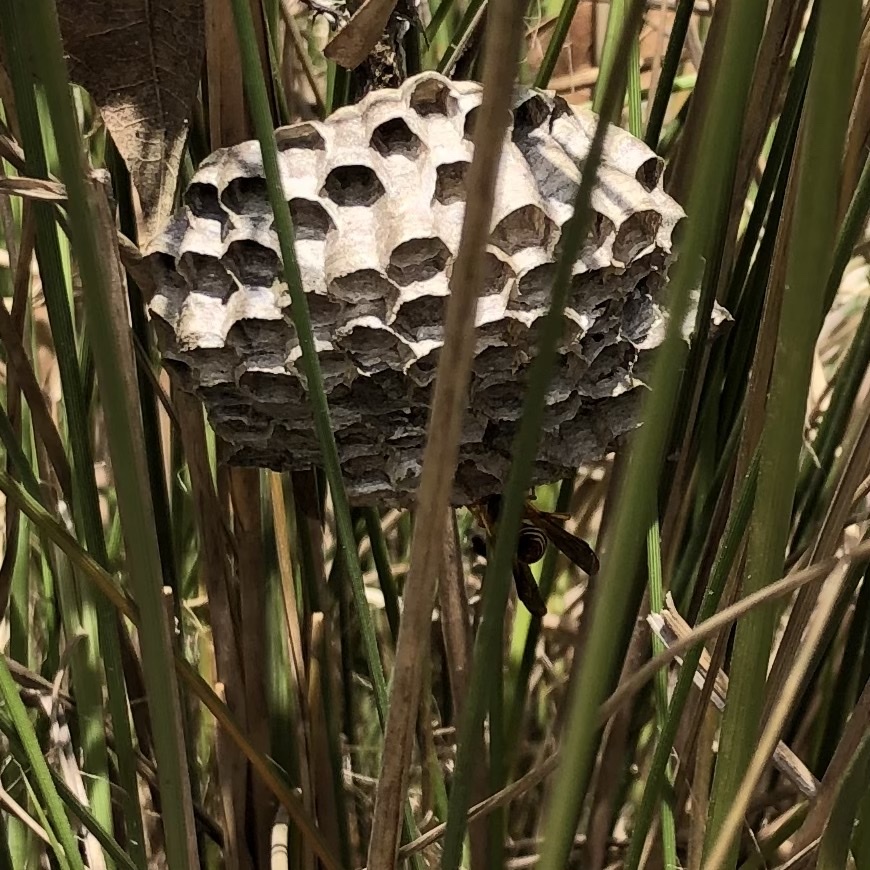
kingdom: Animalia
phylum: Arthropoda
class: Insecta
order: Hymenoptera
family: Eumenidae
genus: Polistes
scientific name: Polistes
